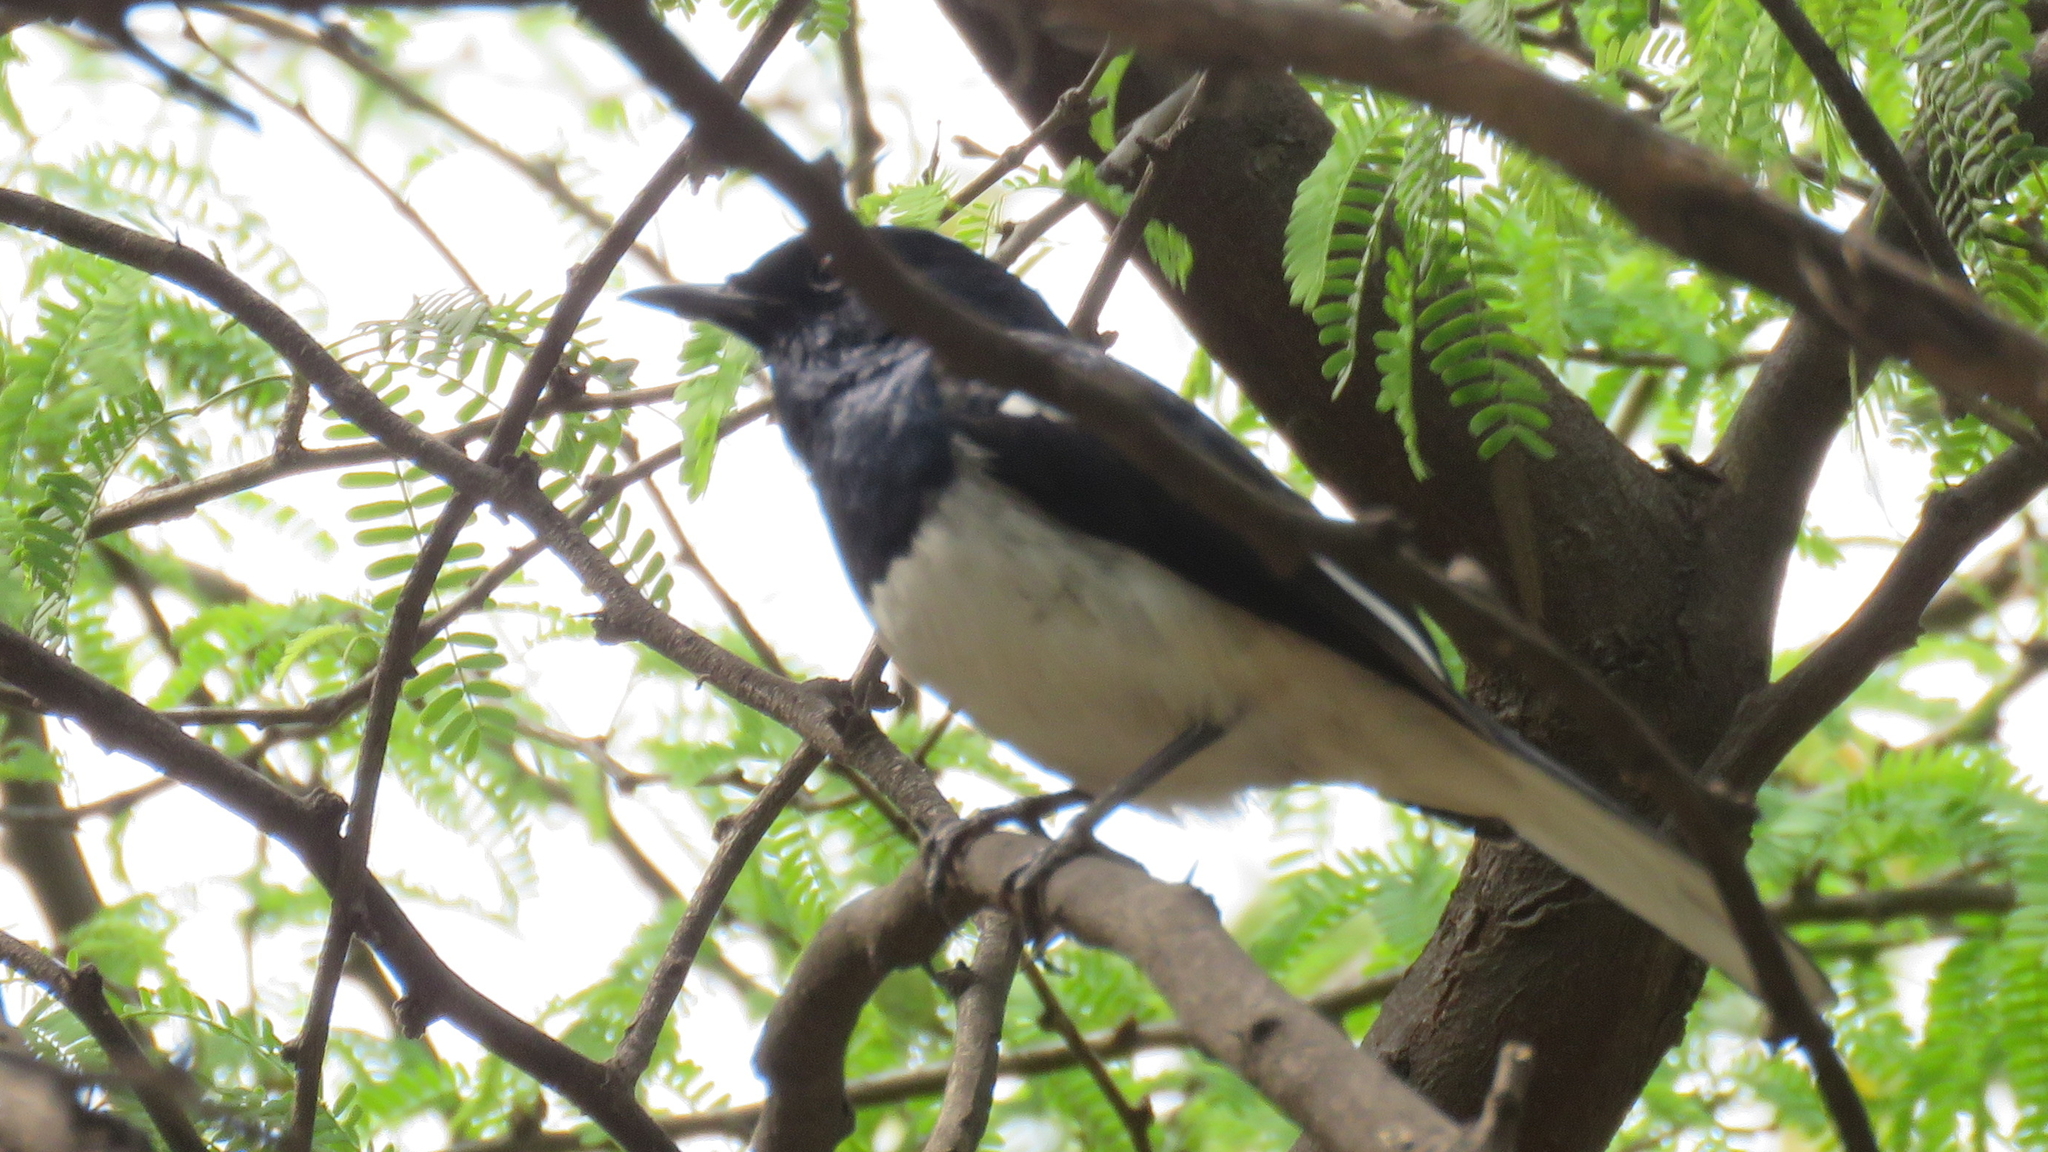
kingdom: Animalia
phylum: Chordata
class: Aves
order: Passeriformes
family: Muscicapidae
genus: Copsychus
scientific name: Copsychus saularis
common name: Oriental magpie-robin
